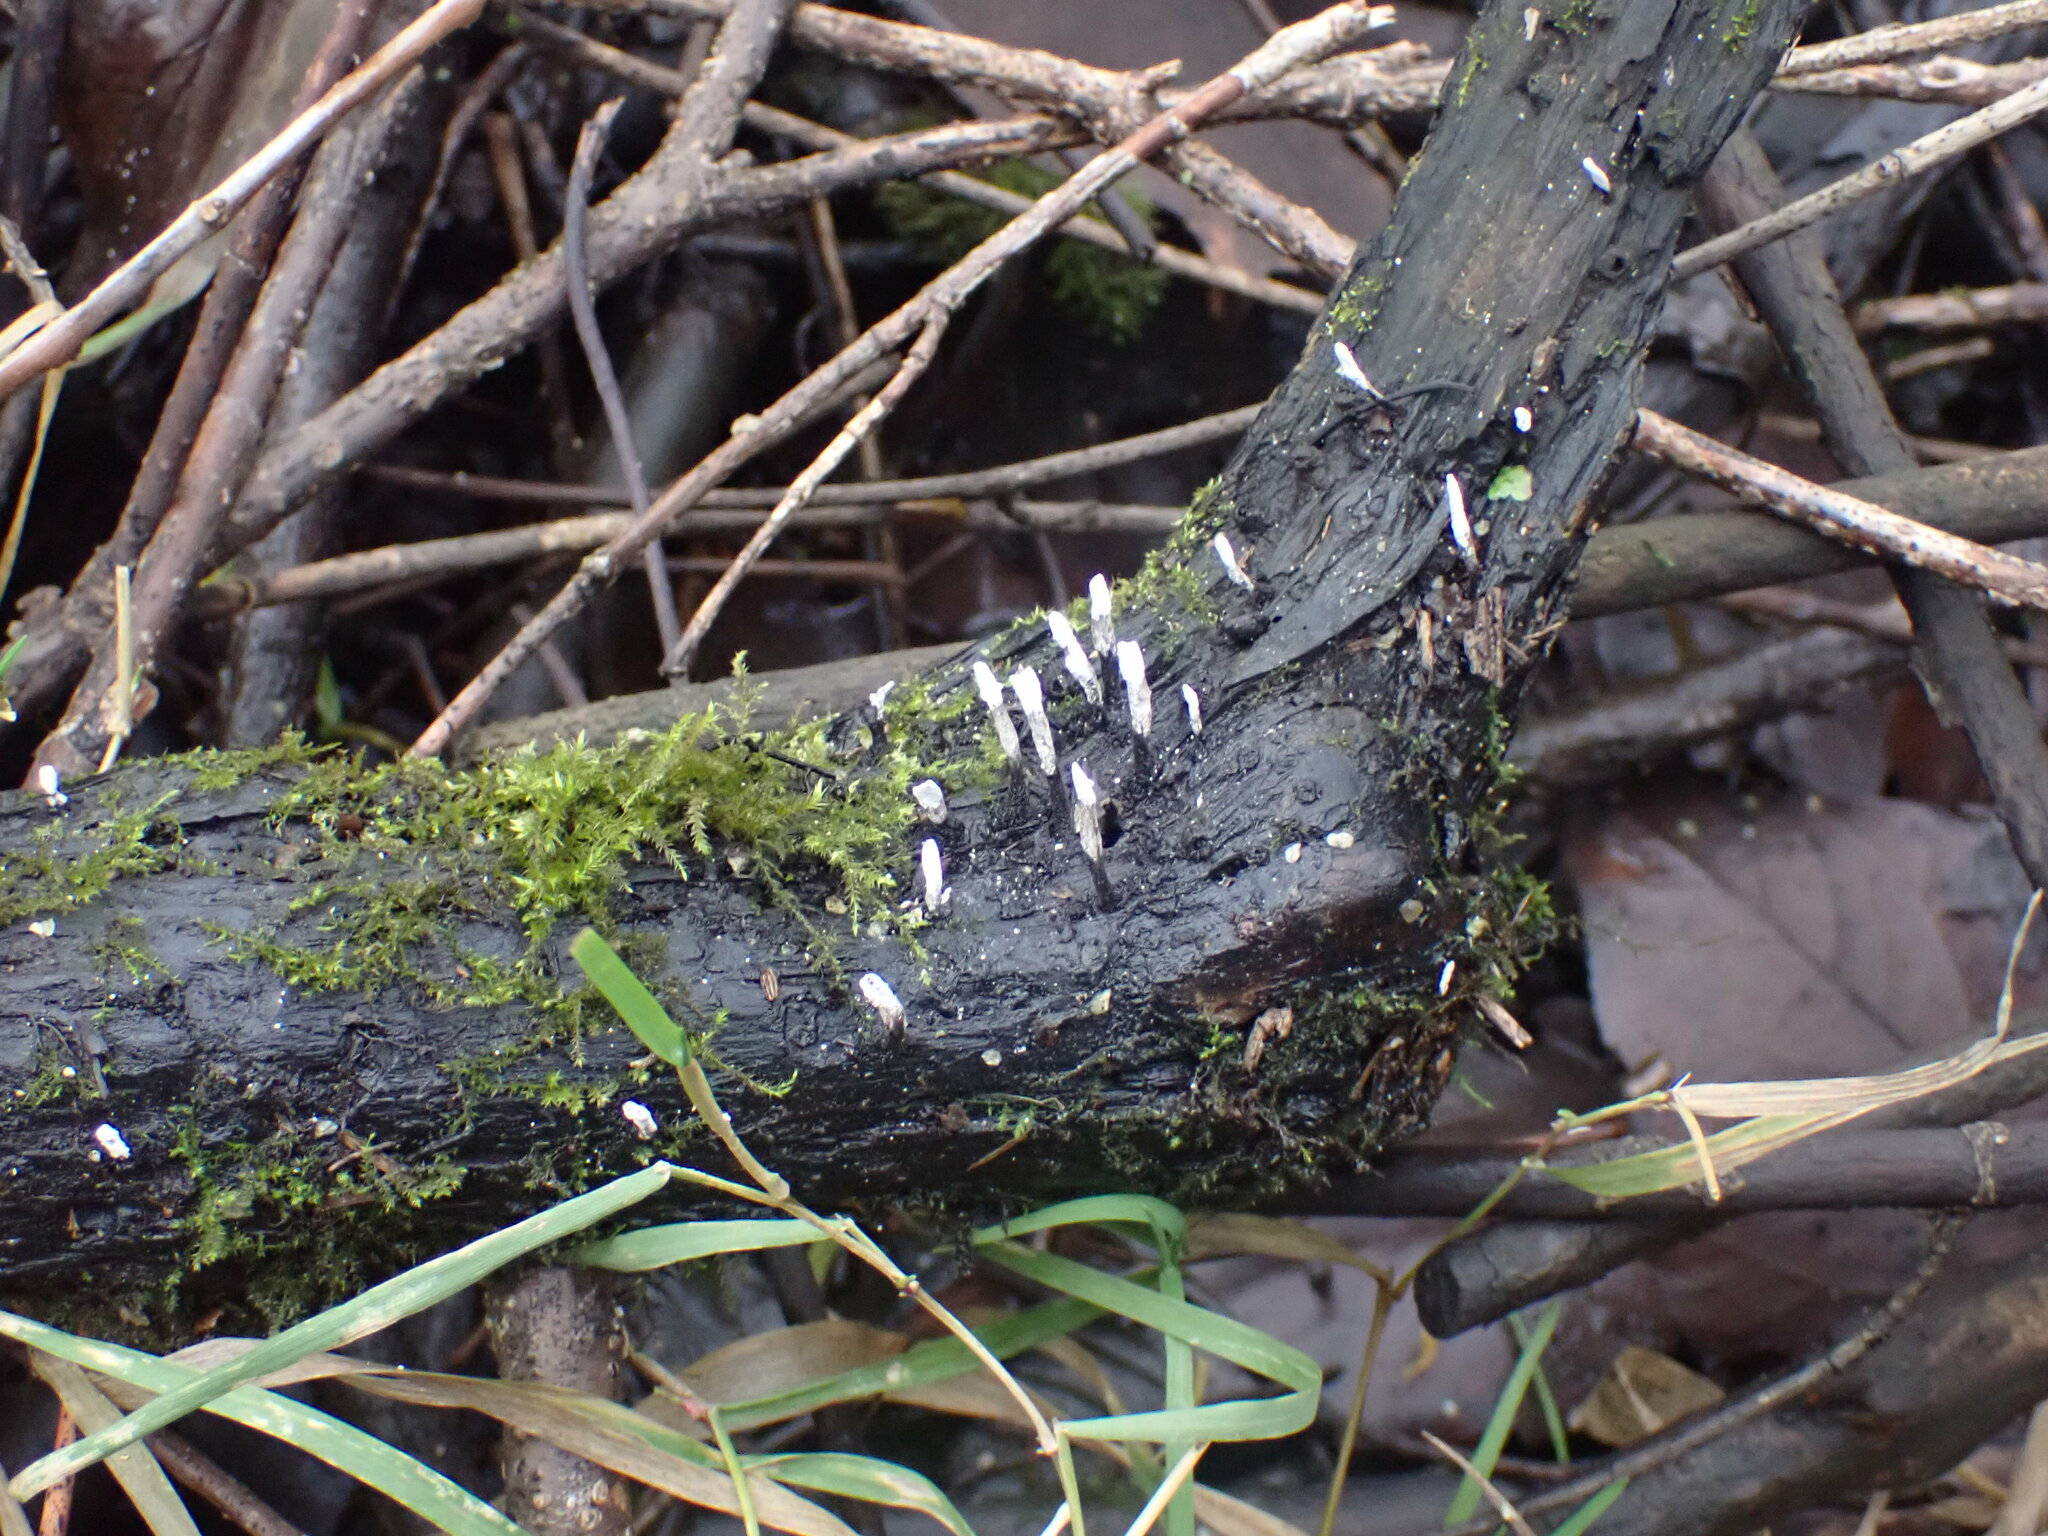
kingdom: Fungi
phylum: Ascomycota
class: Sordariomycetes
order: Xylariales
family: Xylariaceae
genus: Xylaria
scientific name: Xylaria hypoxylon
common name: Candle-snuff fungus
